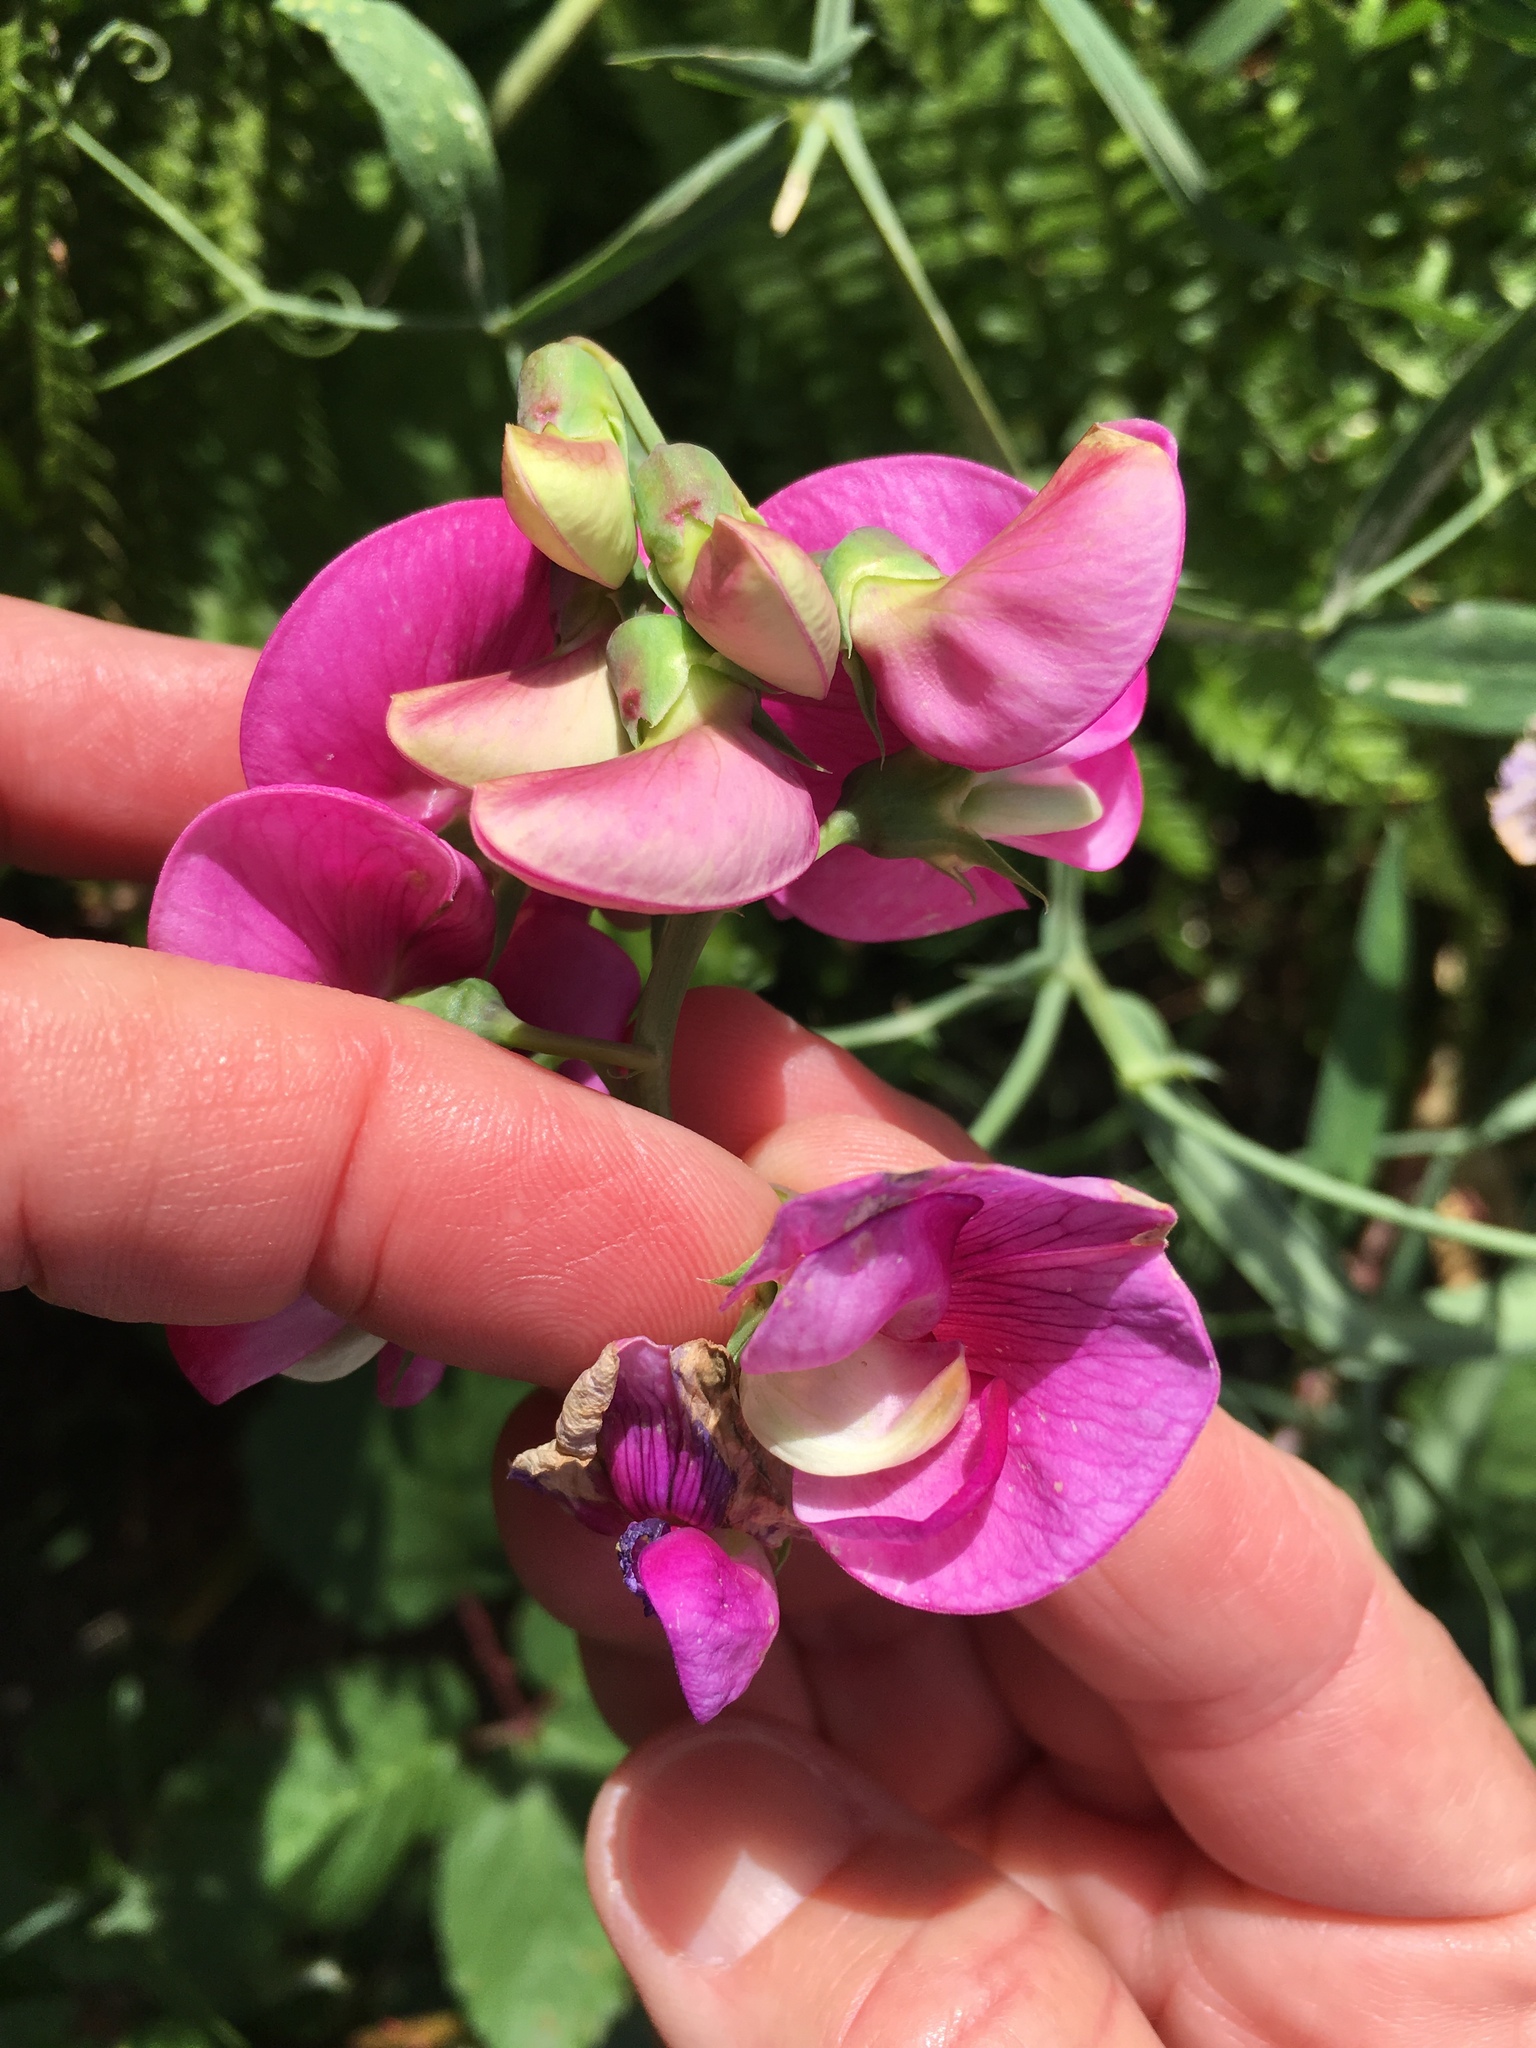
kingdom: Plantae
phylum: Tracheophyta
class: Magnoliopsida
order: Fabales
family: Fabaceae
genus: Lathyrus
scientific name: Lathyrus latifolius
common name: Perennial pea
